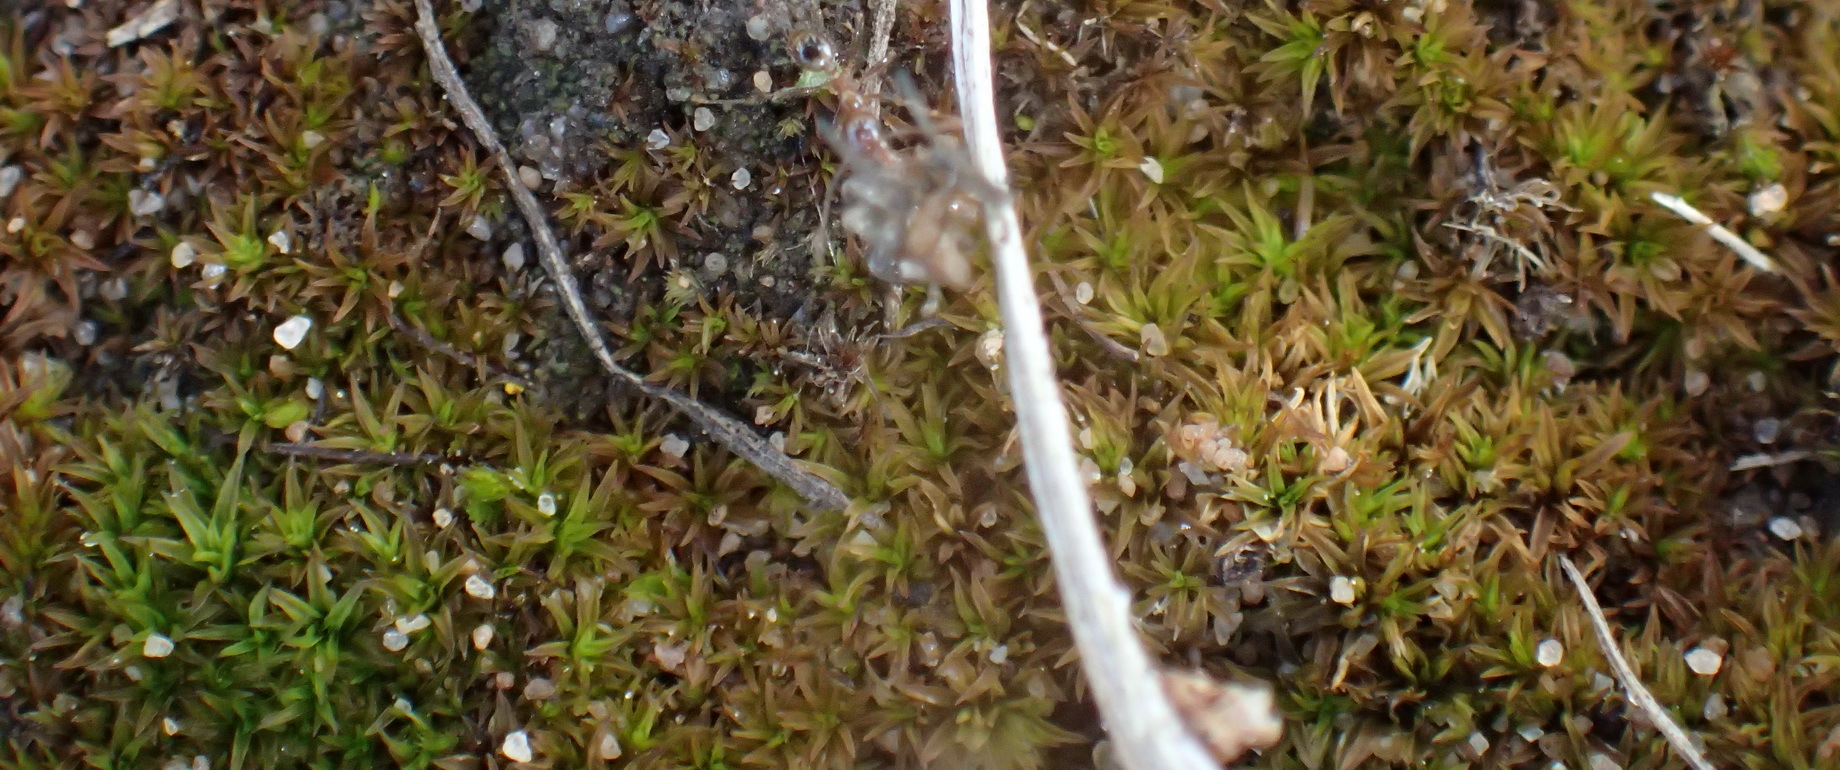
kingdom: Plantae
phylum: Bryophyta
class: Bryopsida
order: Pottiales
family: Pottiaceae
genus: Trichostomum
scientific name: Trichostomum brachydontium
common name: Variable crisp-moss
